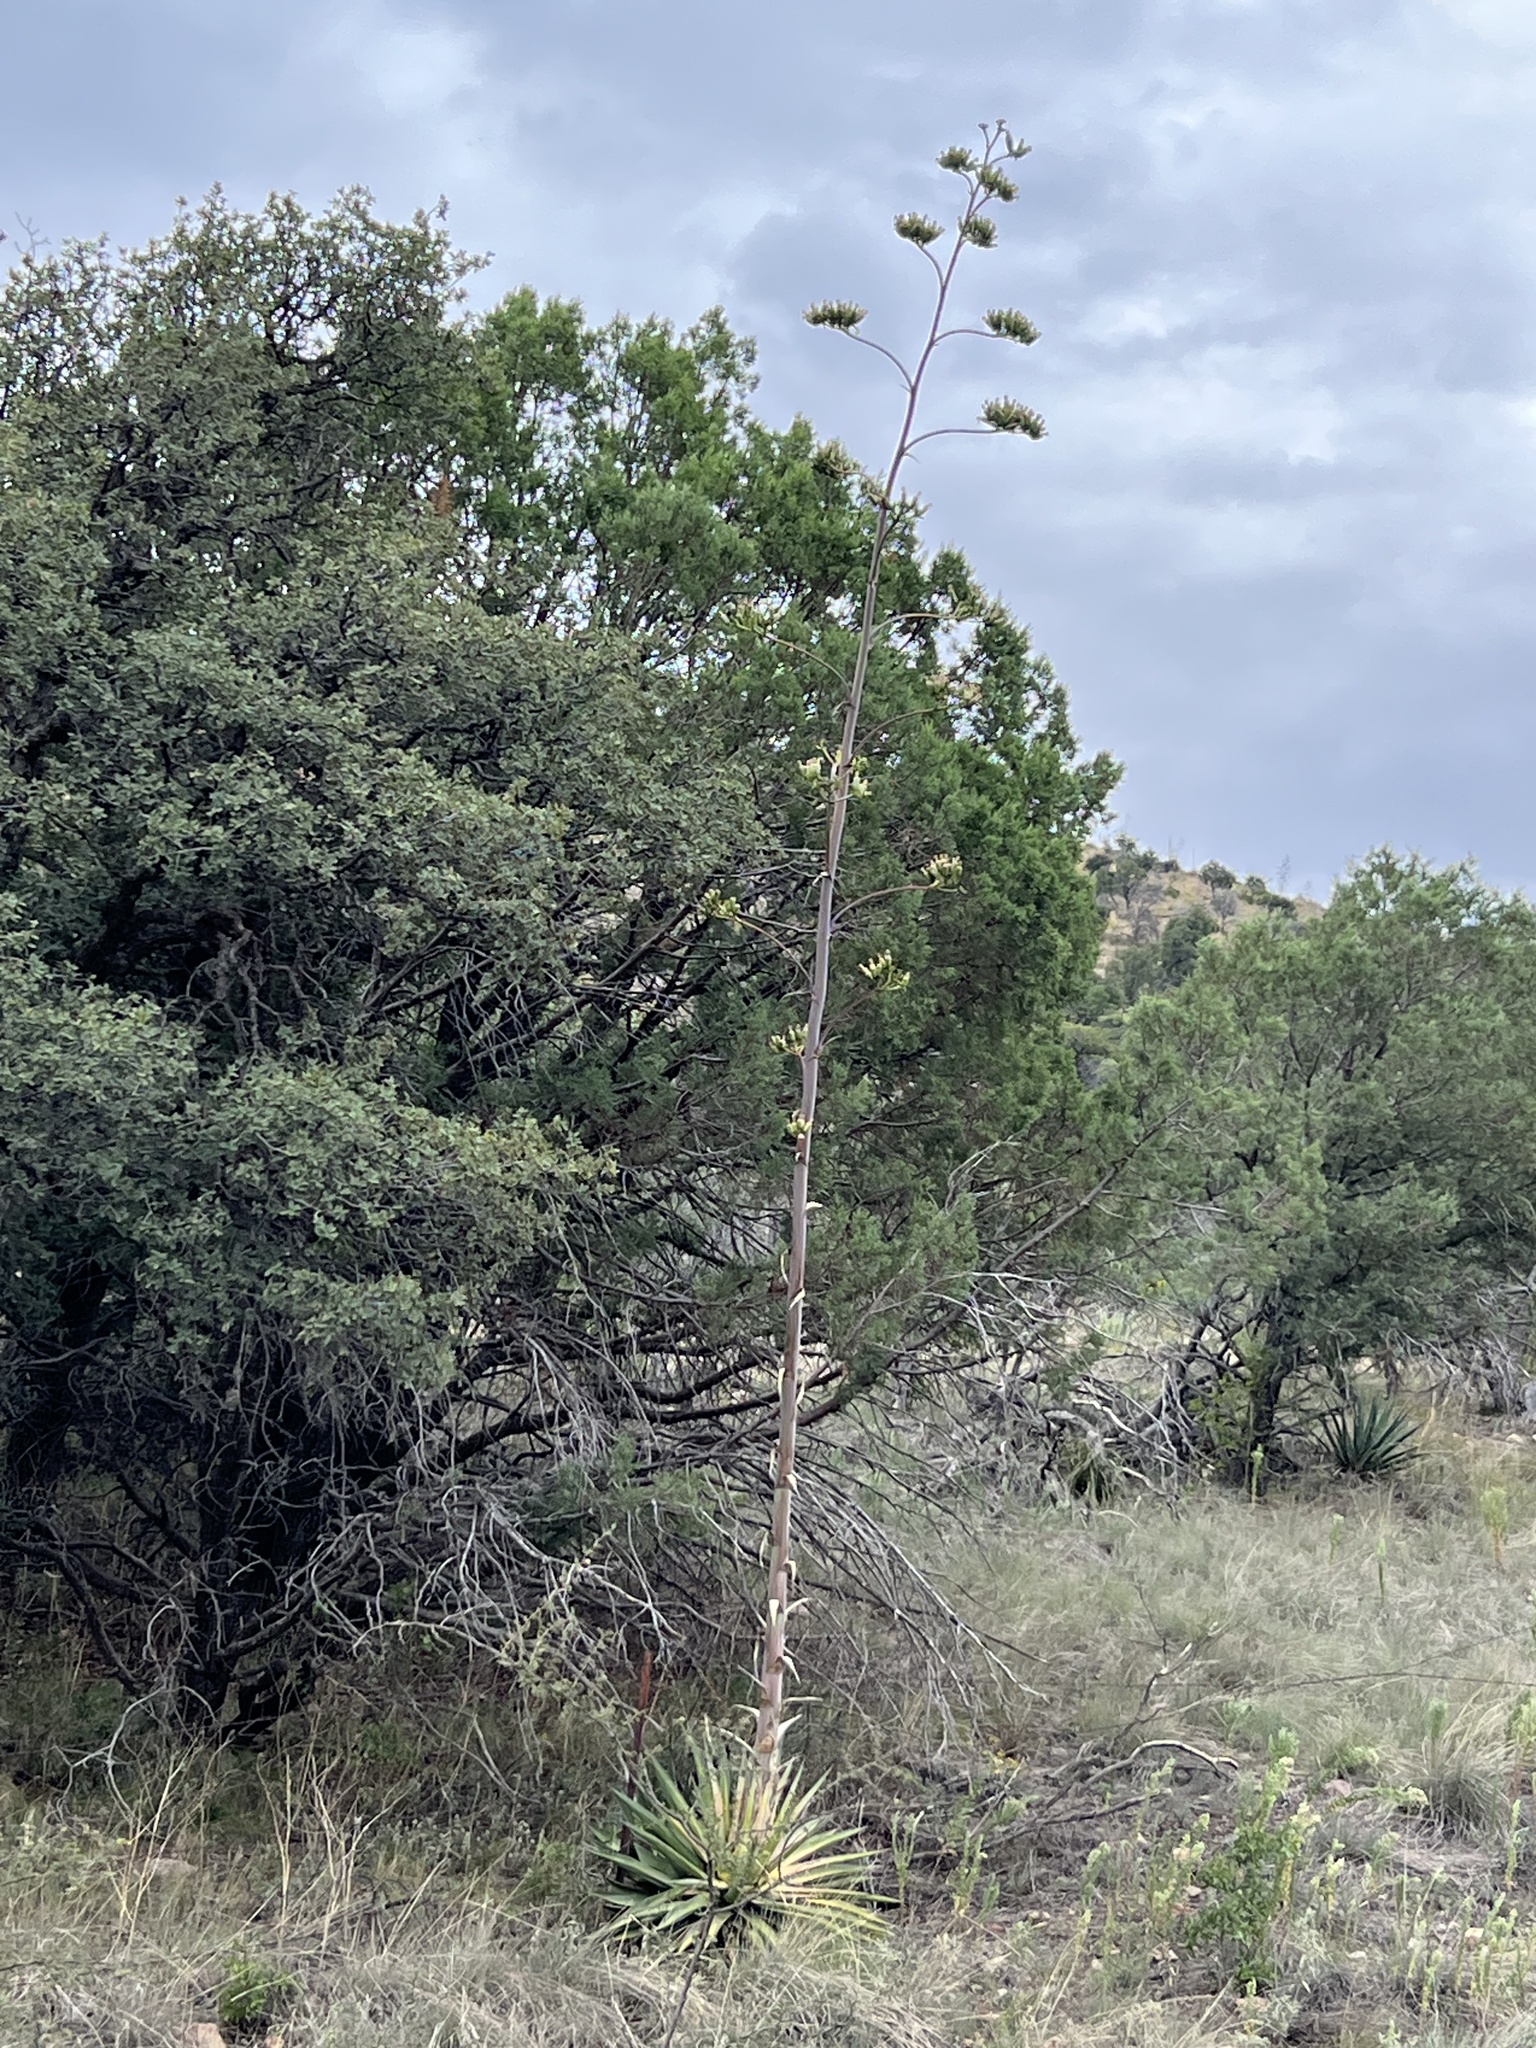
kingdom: Plantae
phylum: Tracheophyta
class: Liliopsida
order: Asparagales
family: Asparagaceae
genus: Agave
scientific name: Agave palmeri
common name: Palmer agave
